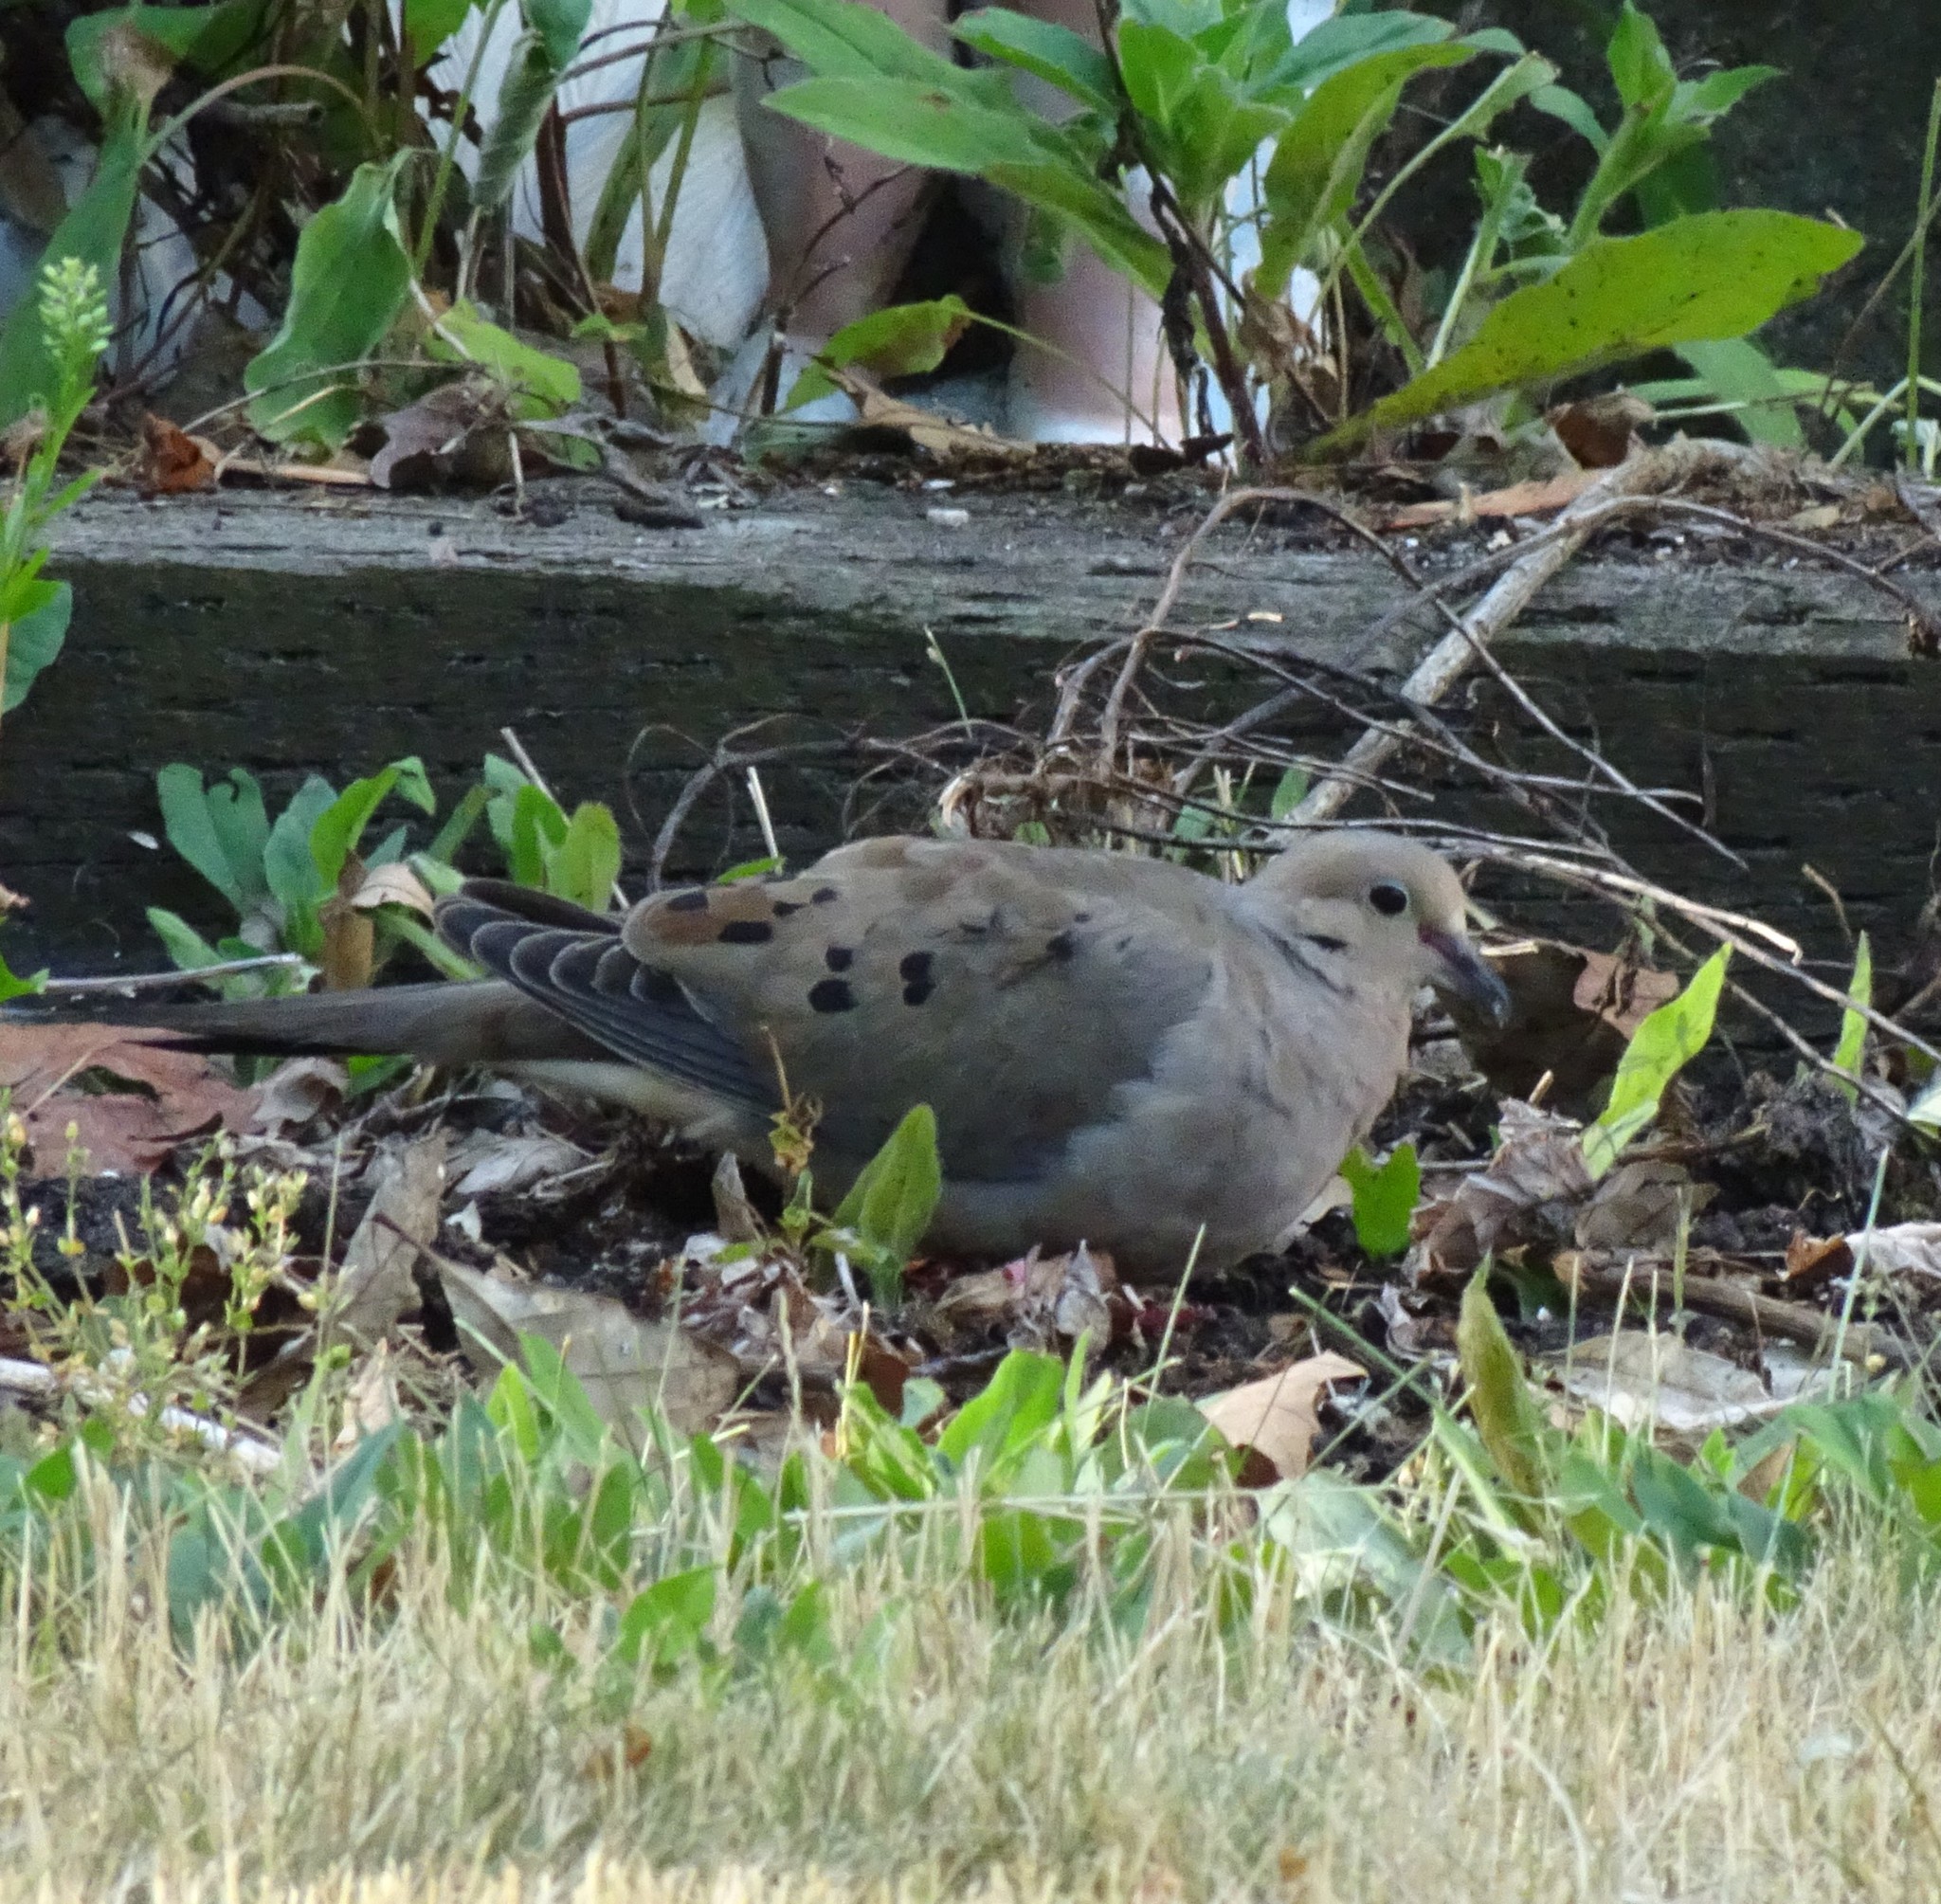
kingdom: Animalia
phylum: Chordata
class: Aves
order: Columbiformes
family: Columbidae
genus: Zenaida
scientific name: Zenaida macroura
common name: Mourning dove
